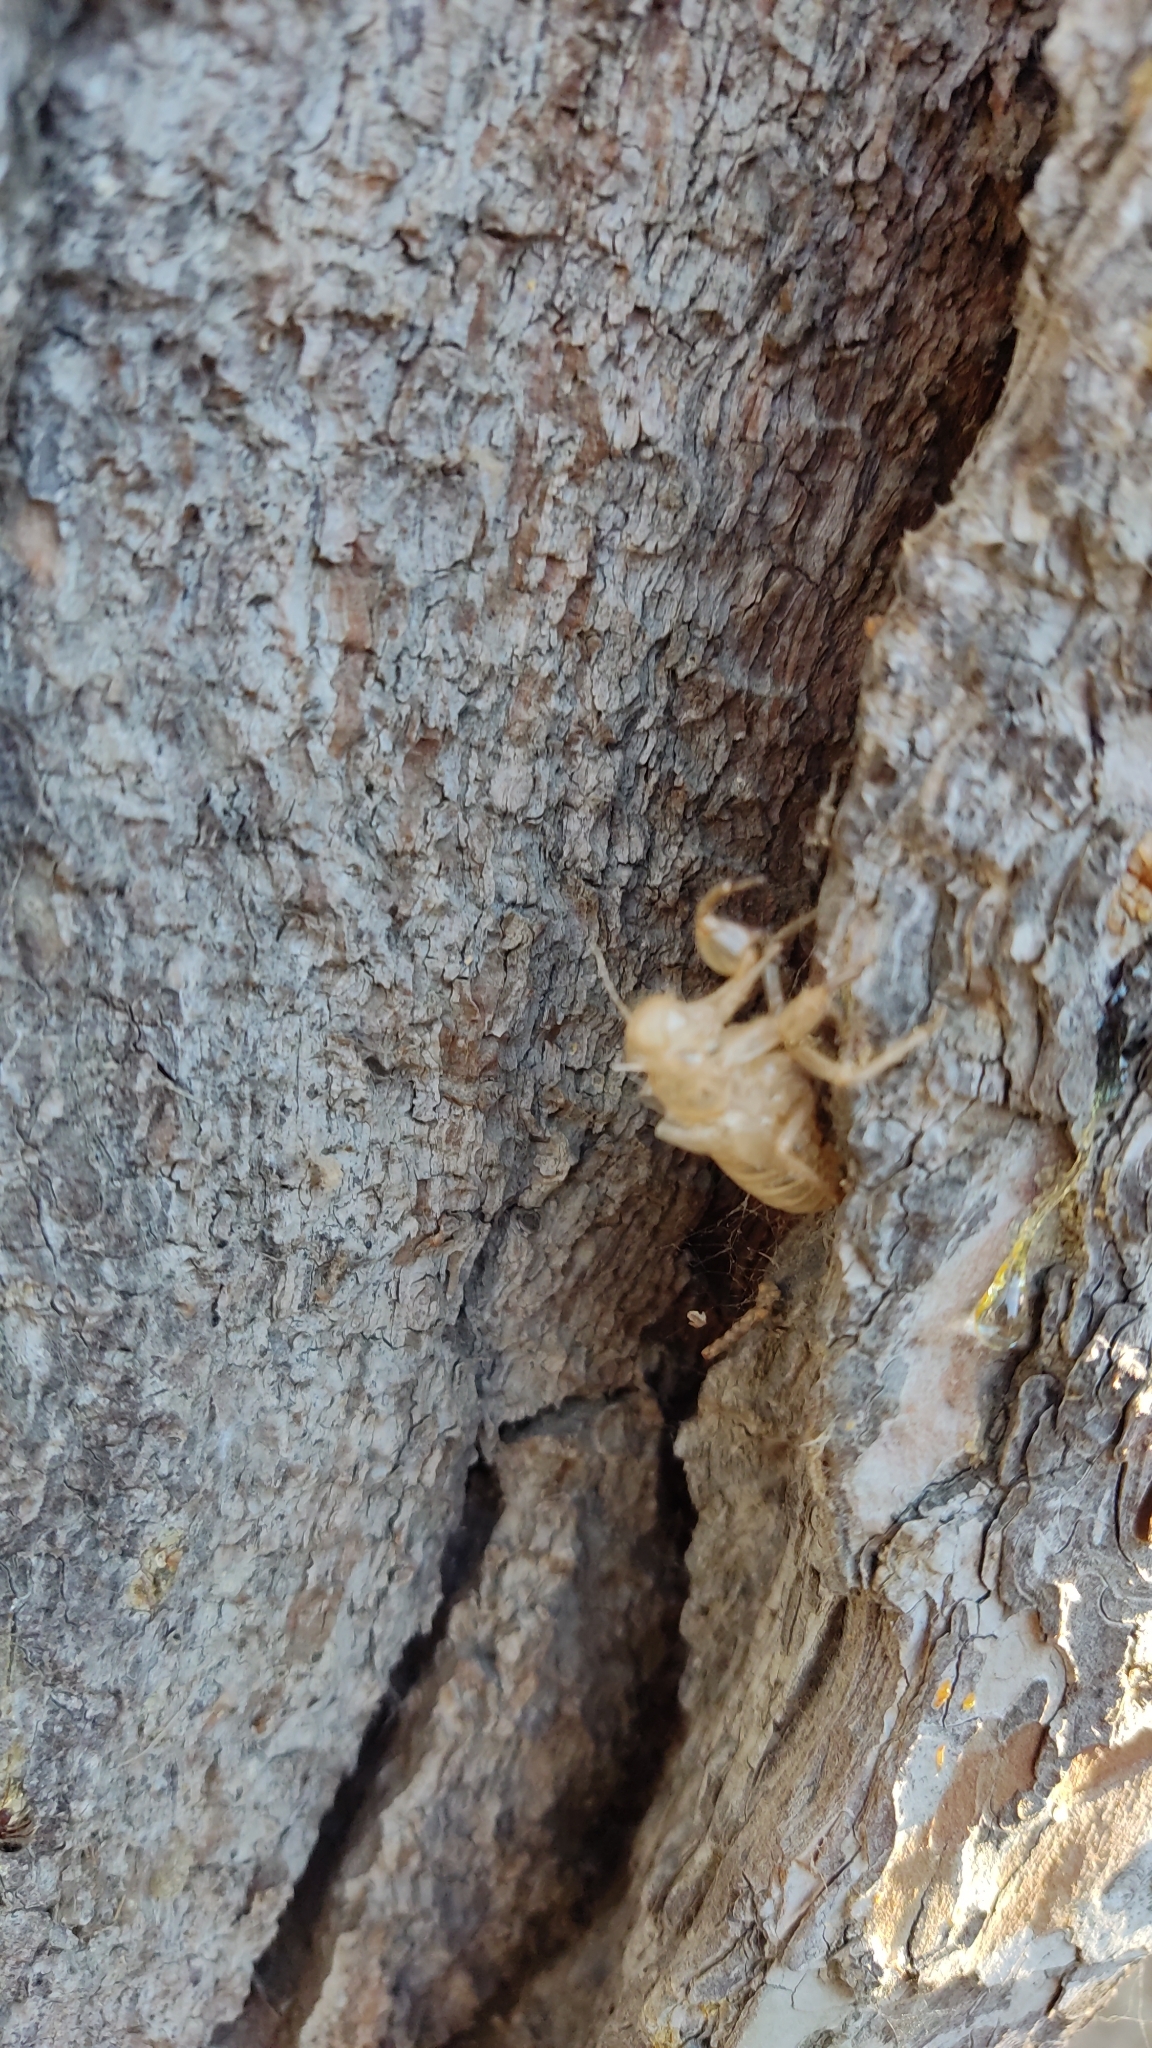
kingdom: Animalia
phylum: Arthropoda
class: Insecta
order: Hemiptera
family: Cicadidae
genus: Cicada
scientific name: Cicada orni
